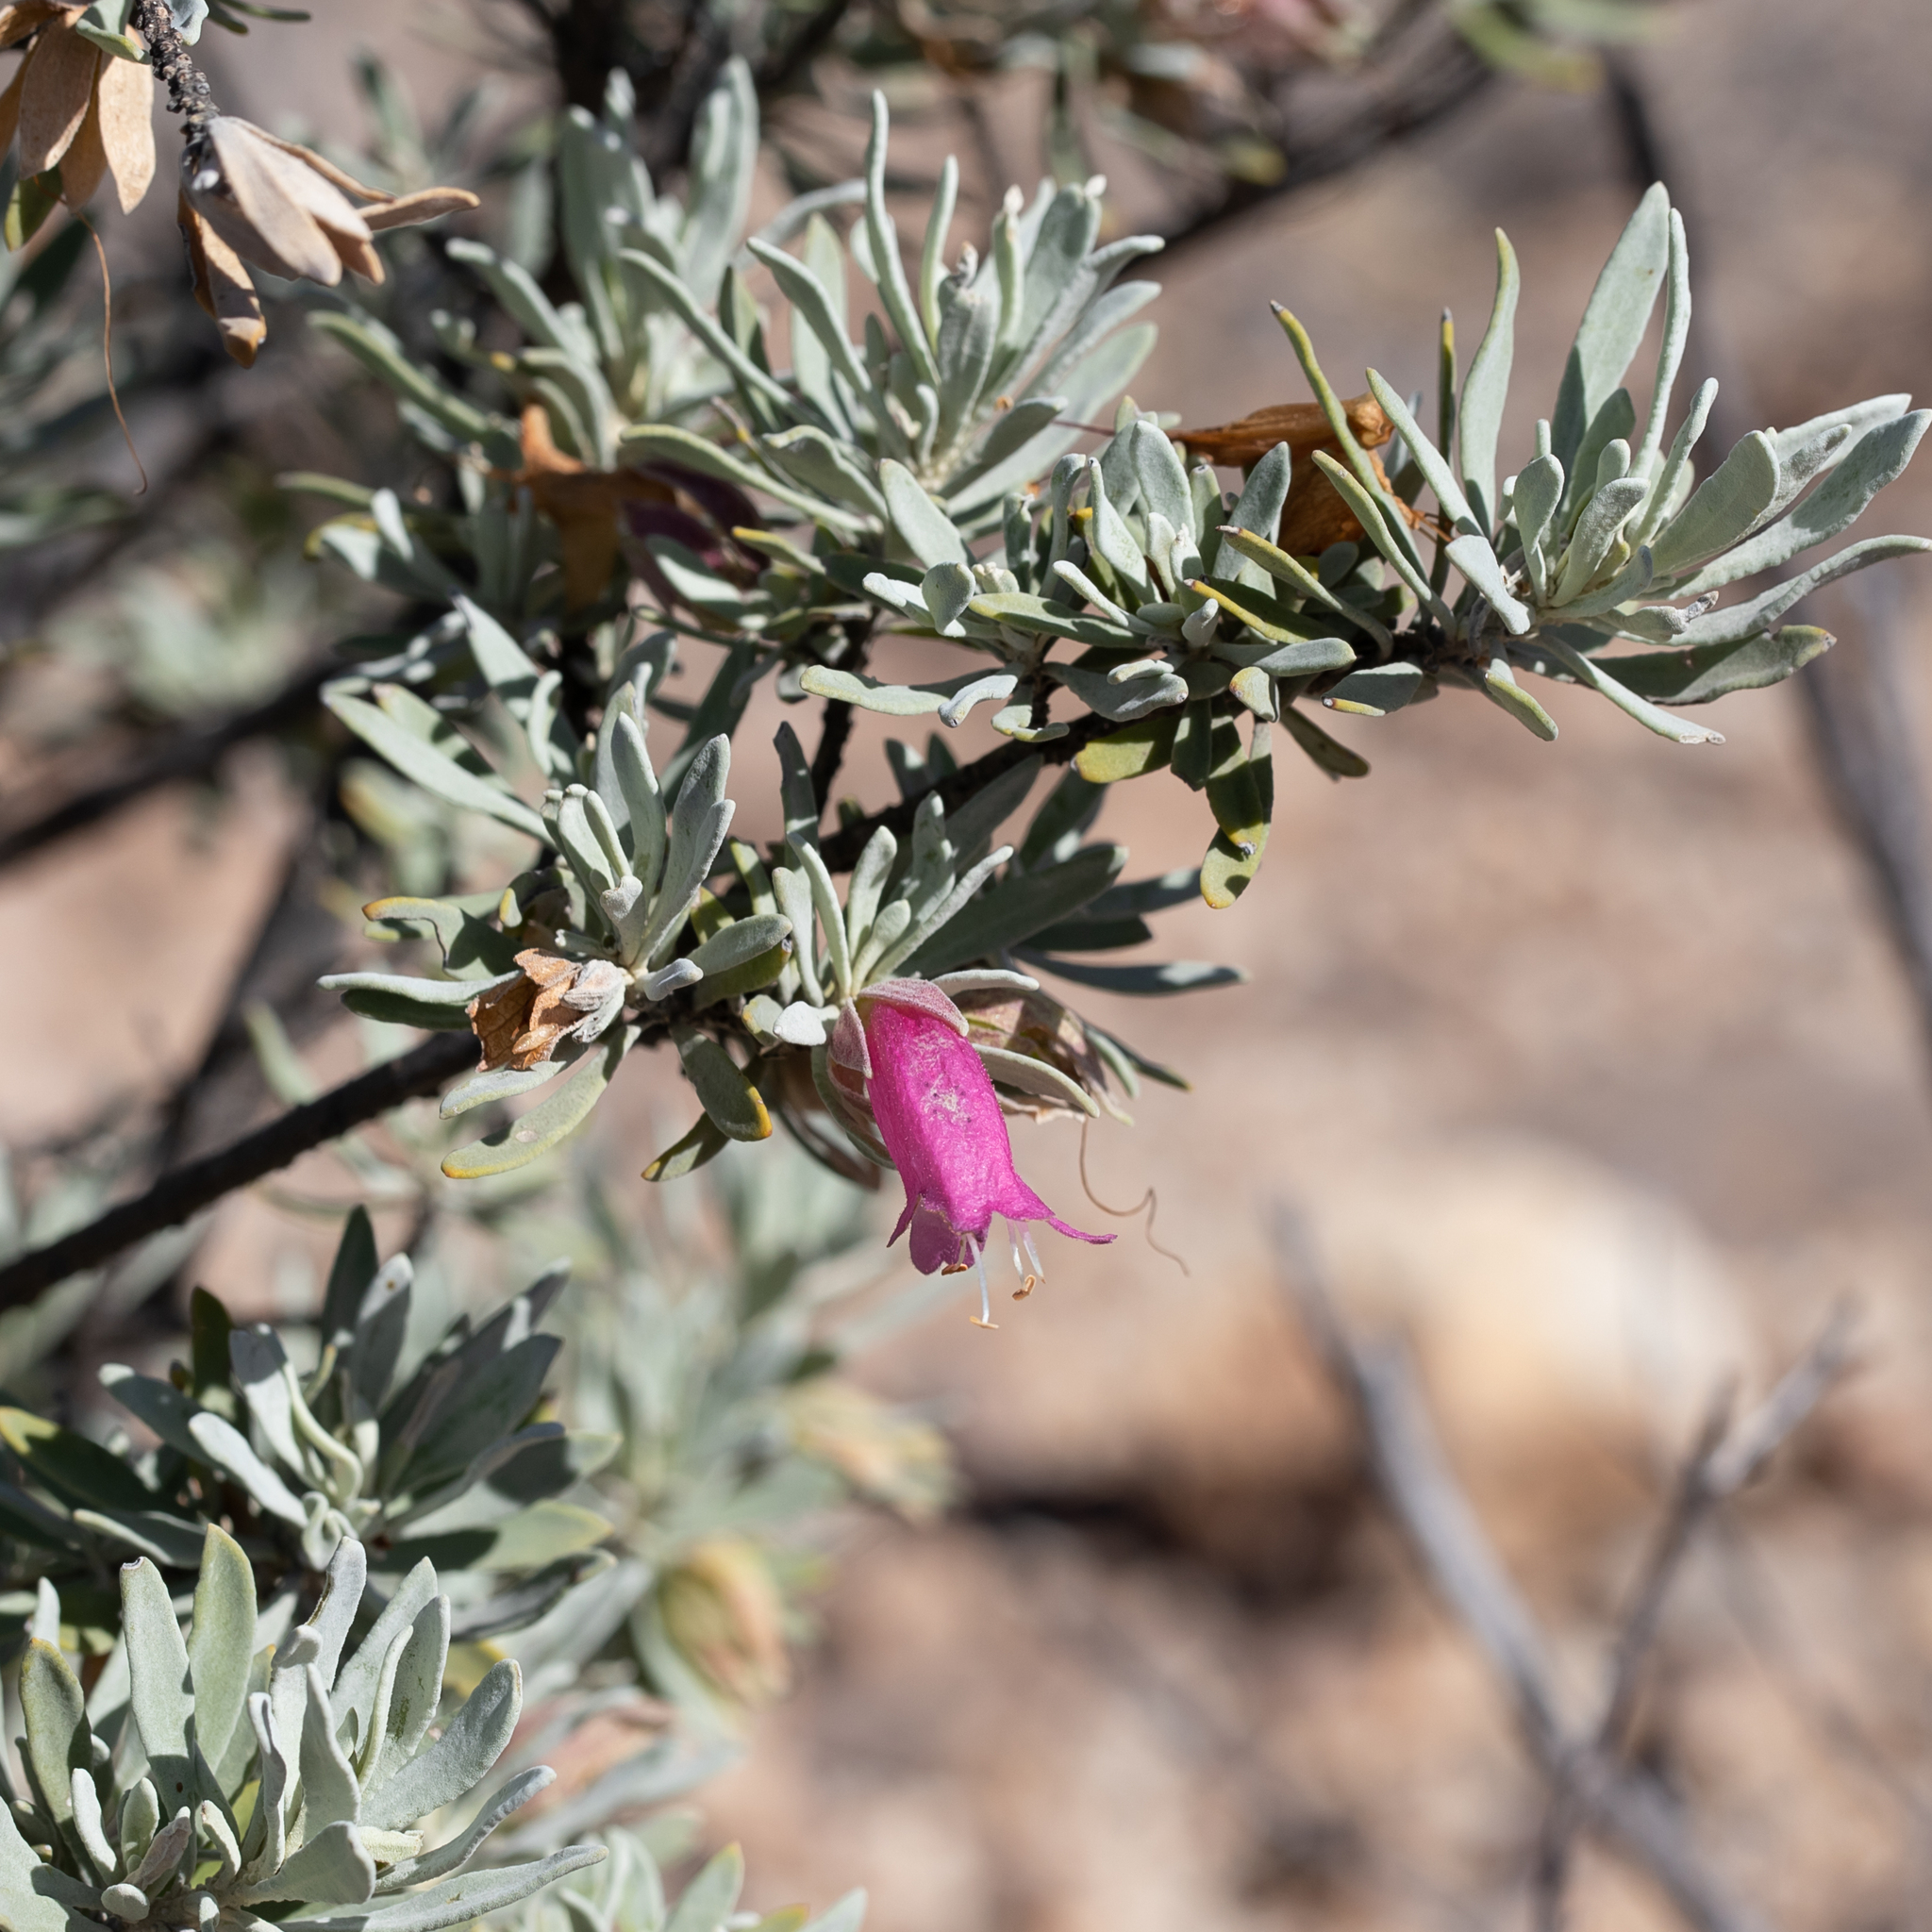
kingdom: Plantae
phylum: Tracheophyta
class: Magnoliopsida
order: Lamiales
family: Scrophulariaceae
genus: Eremophila
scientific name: Eremophila latrobei
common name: Crimson turkeybush
